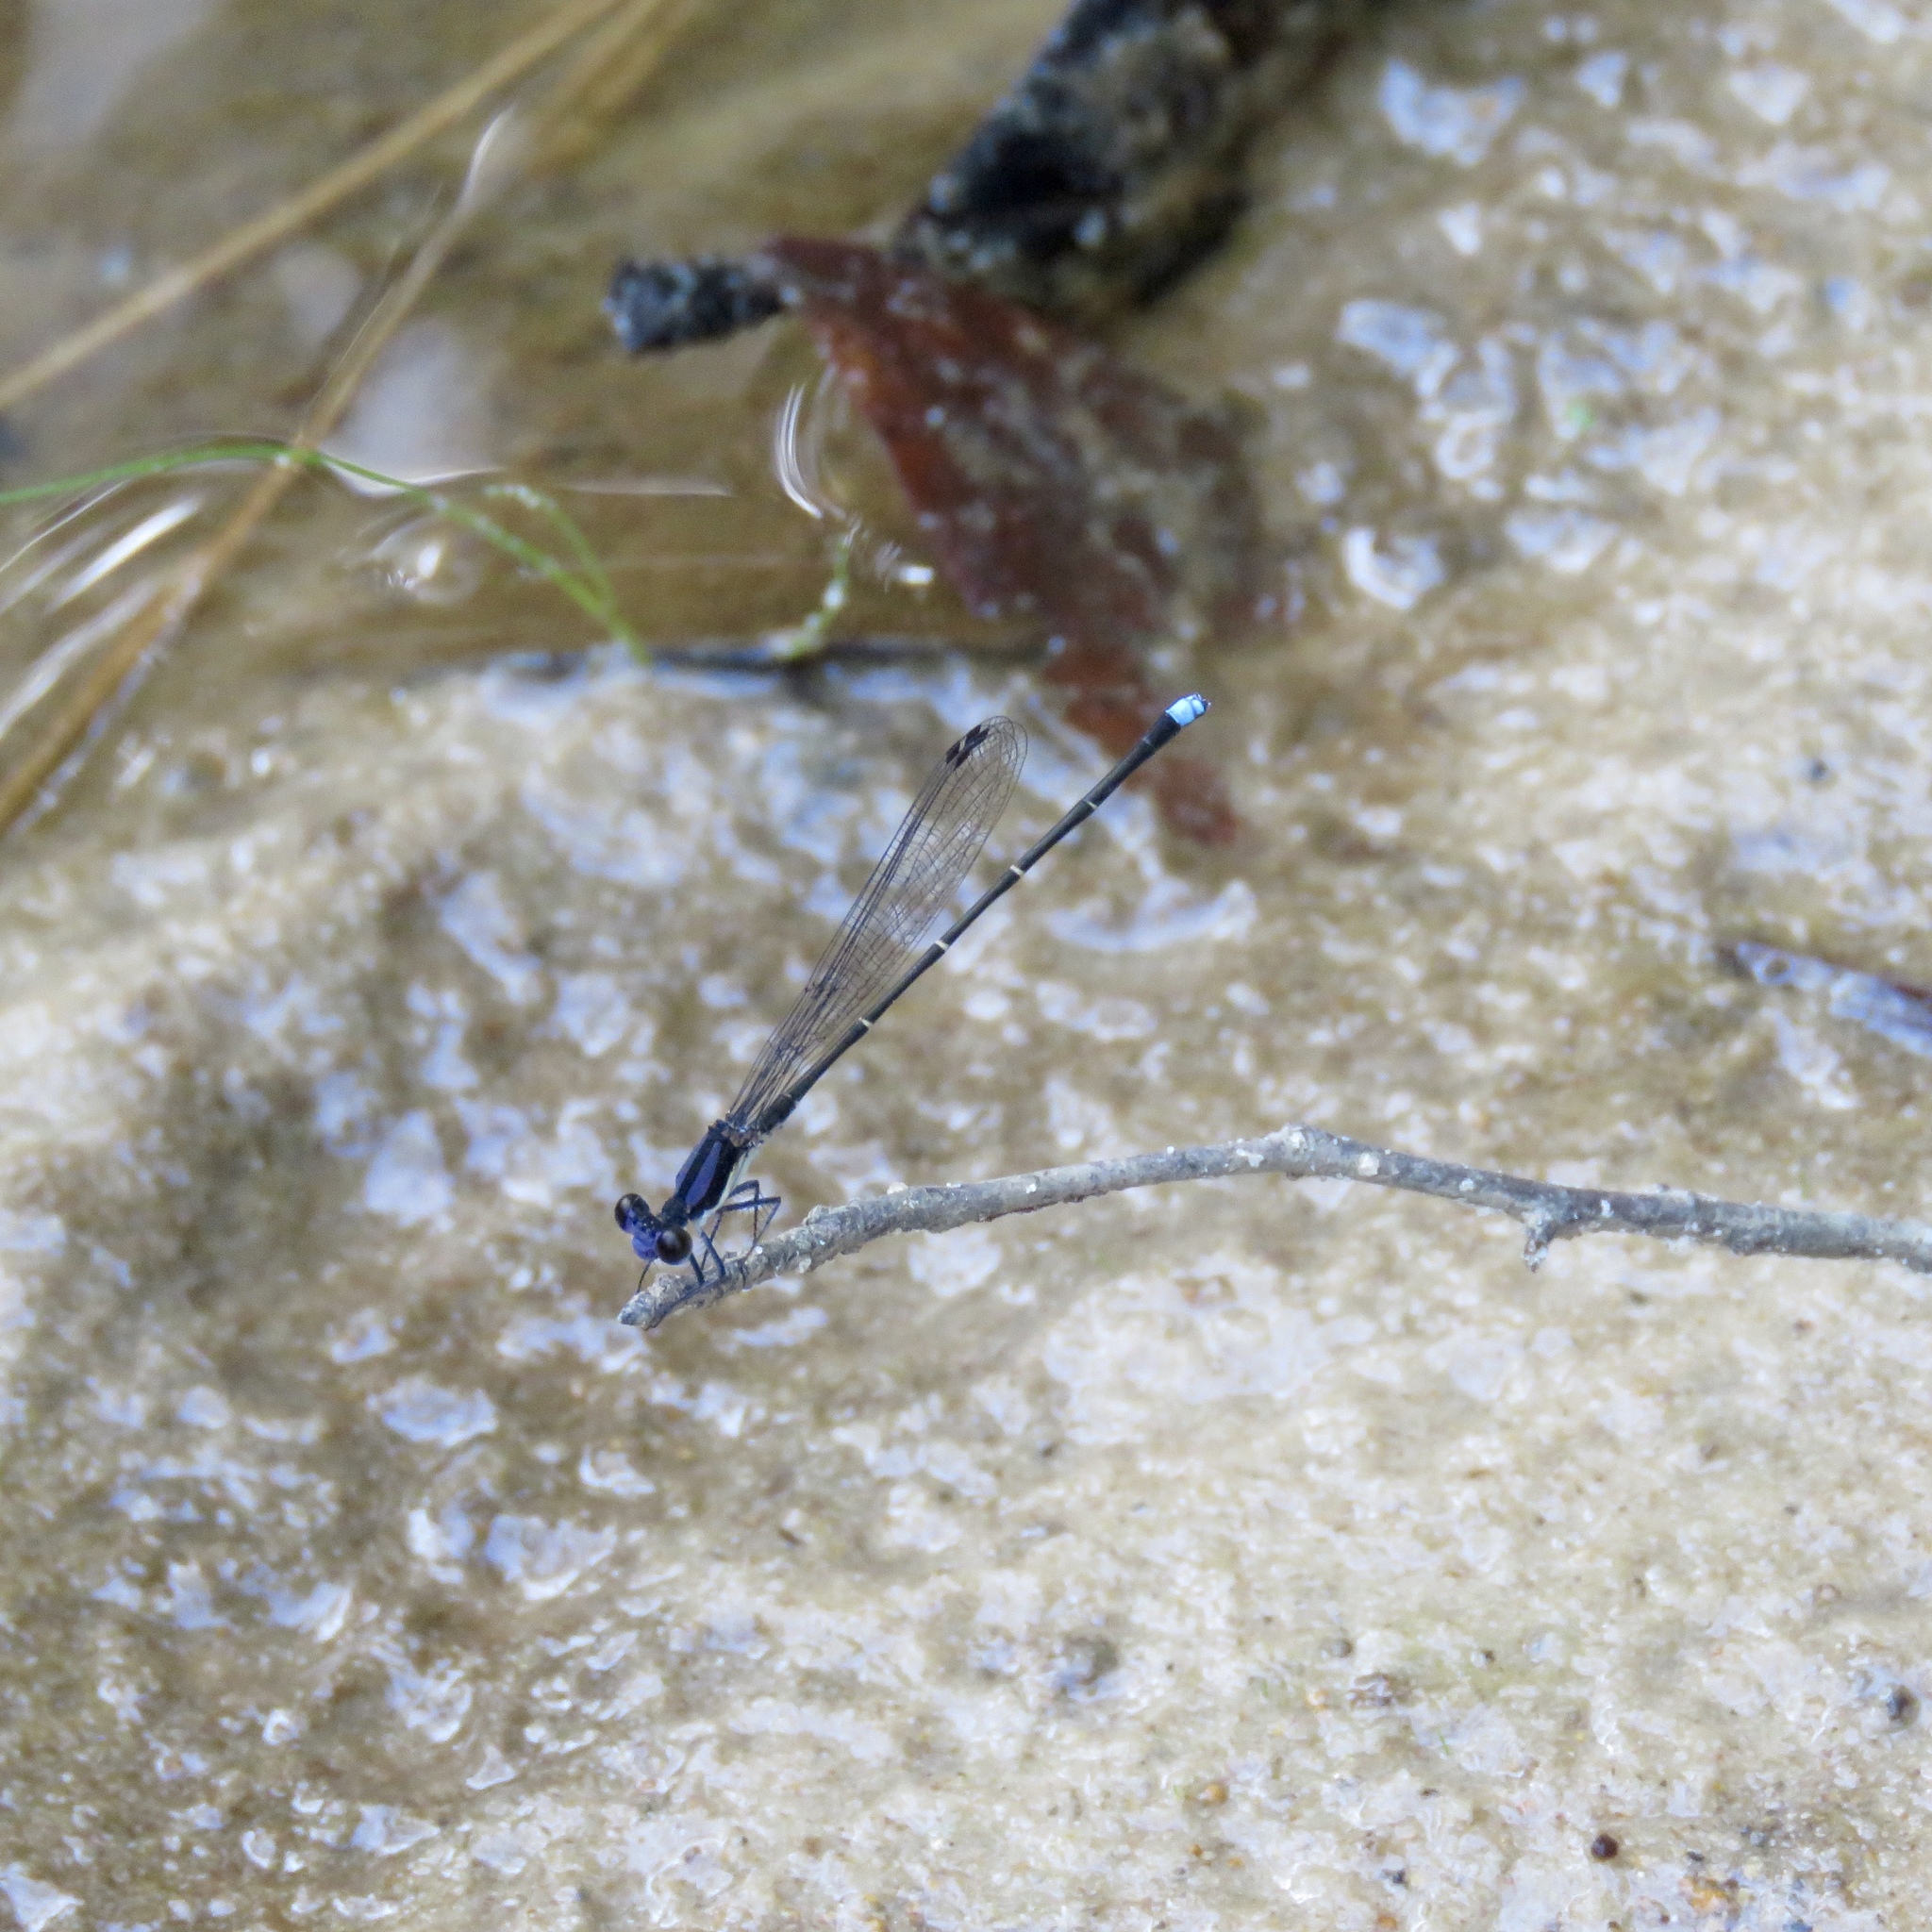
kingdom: Animalia
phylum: Arthropoda
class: Insecta
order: Odonata
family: Coenagrionidae
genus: Argia
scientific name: Argia tibialis
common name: Blue-tipped dancer
